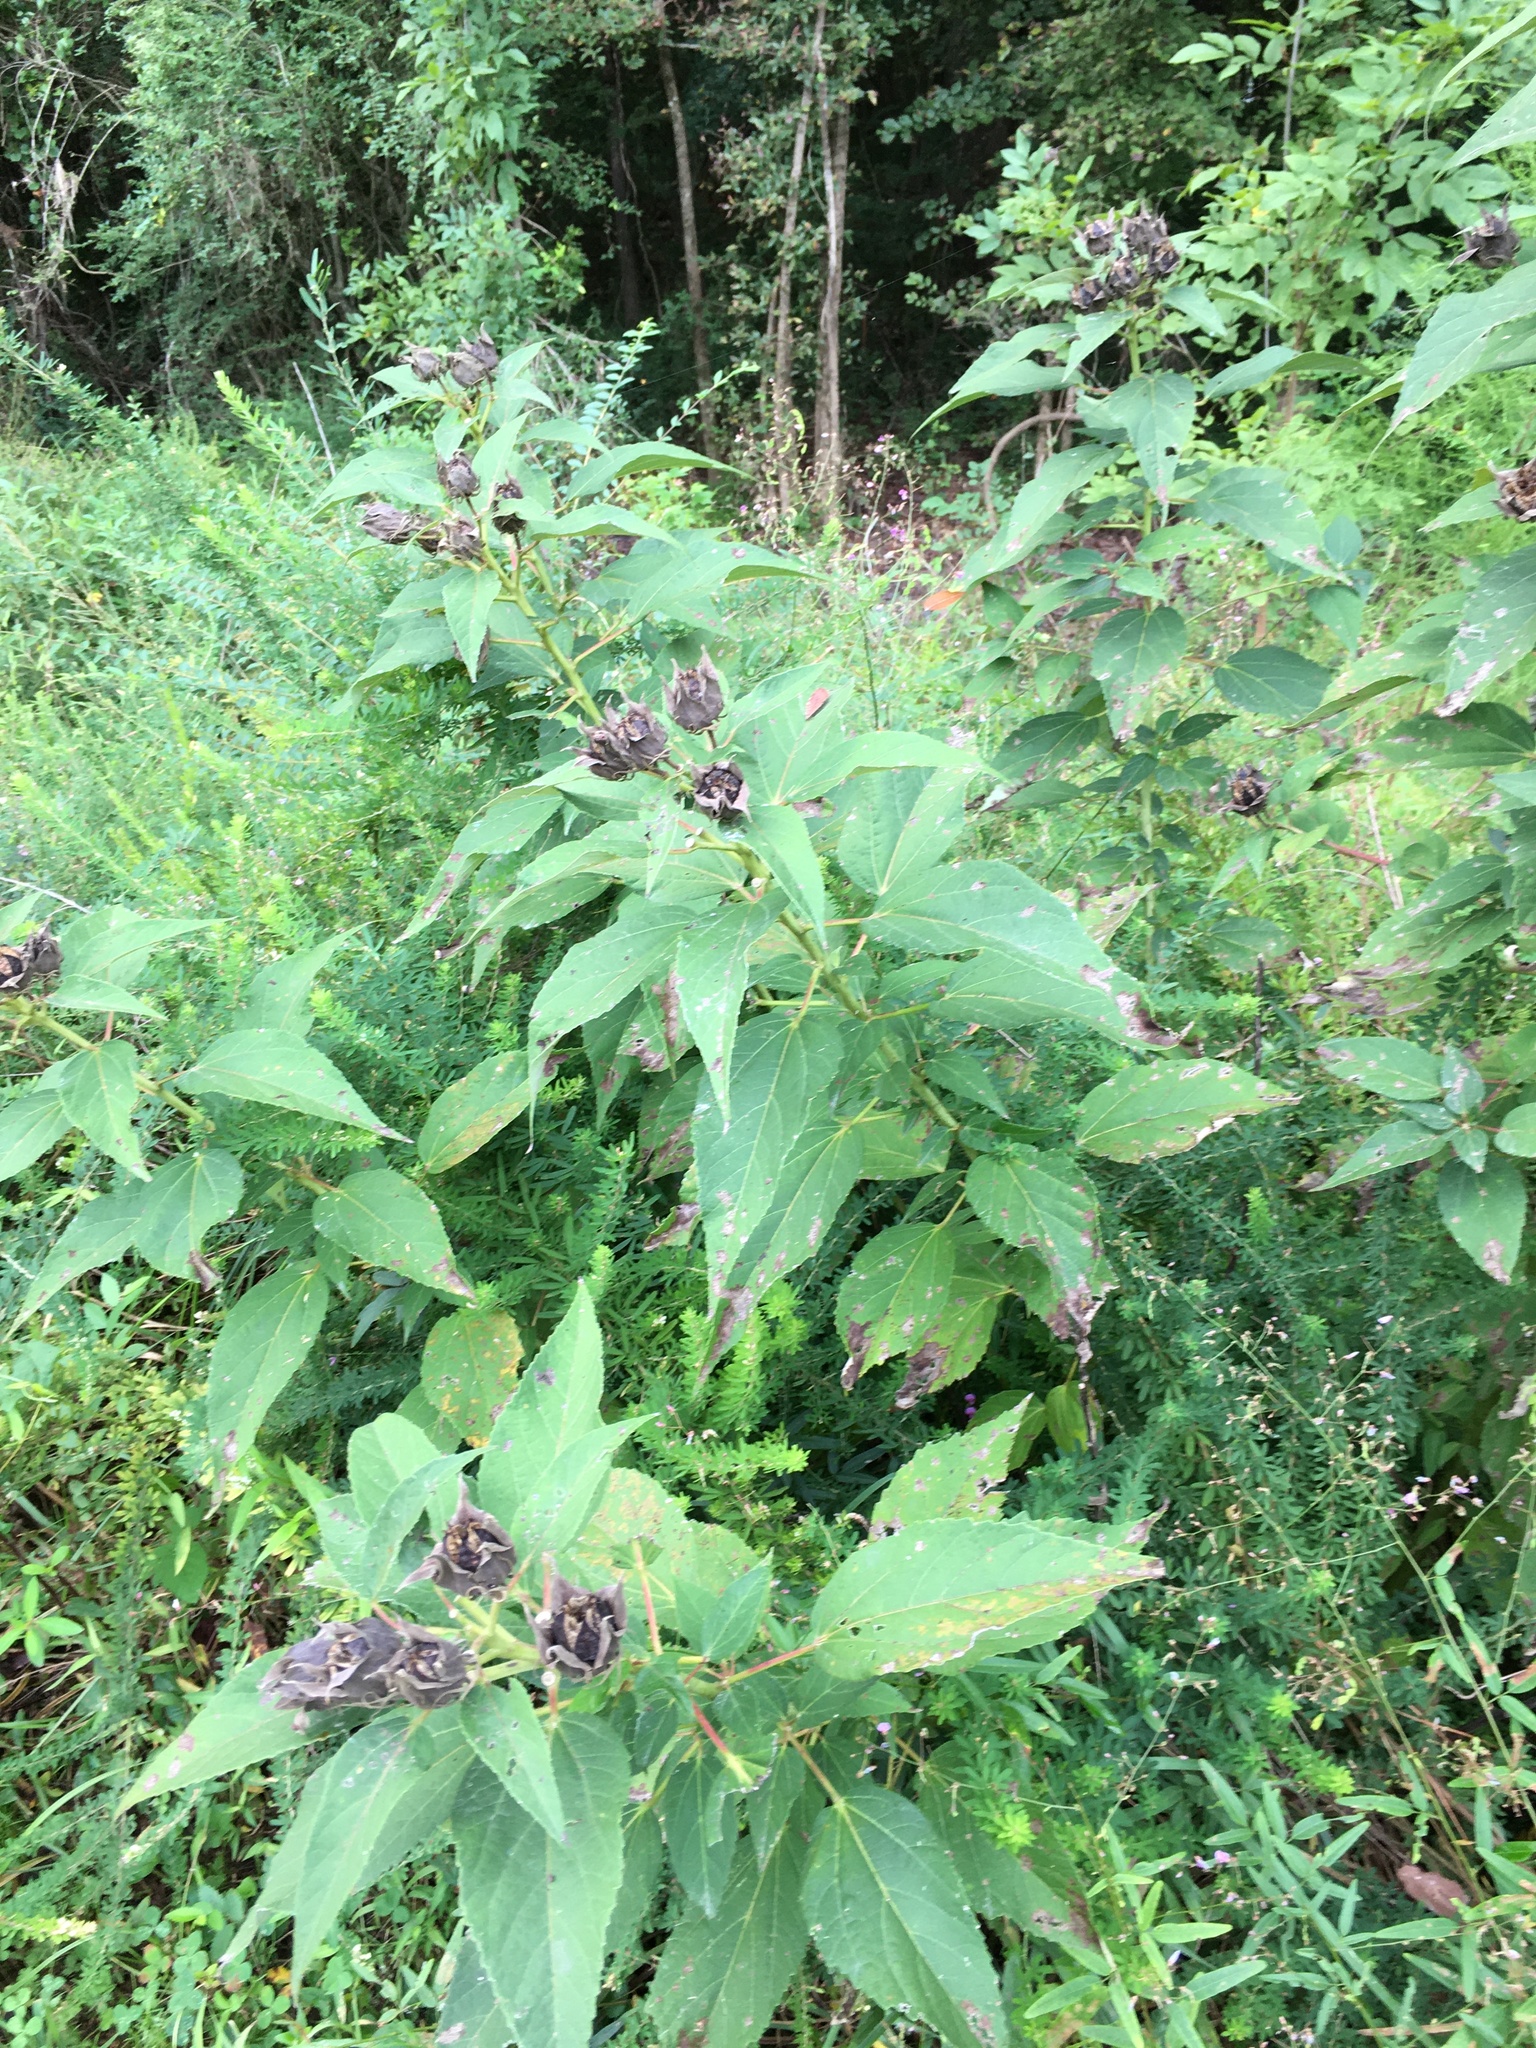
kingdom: Plantae
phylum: Tracheophyta
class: Magnoliopsida
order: Malvales
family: Malvaceae
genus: Hibiscus
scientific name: Hibiscus moscheutos
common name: Common rose-mallow
